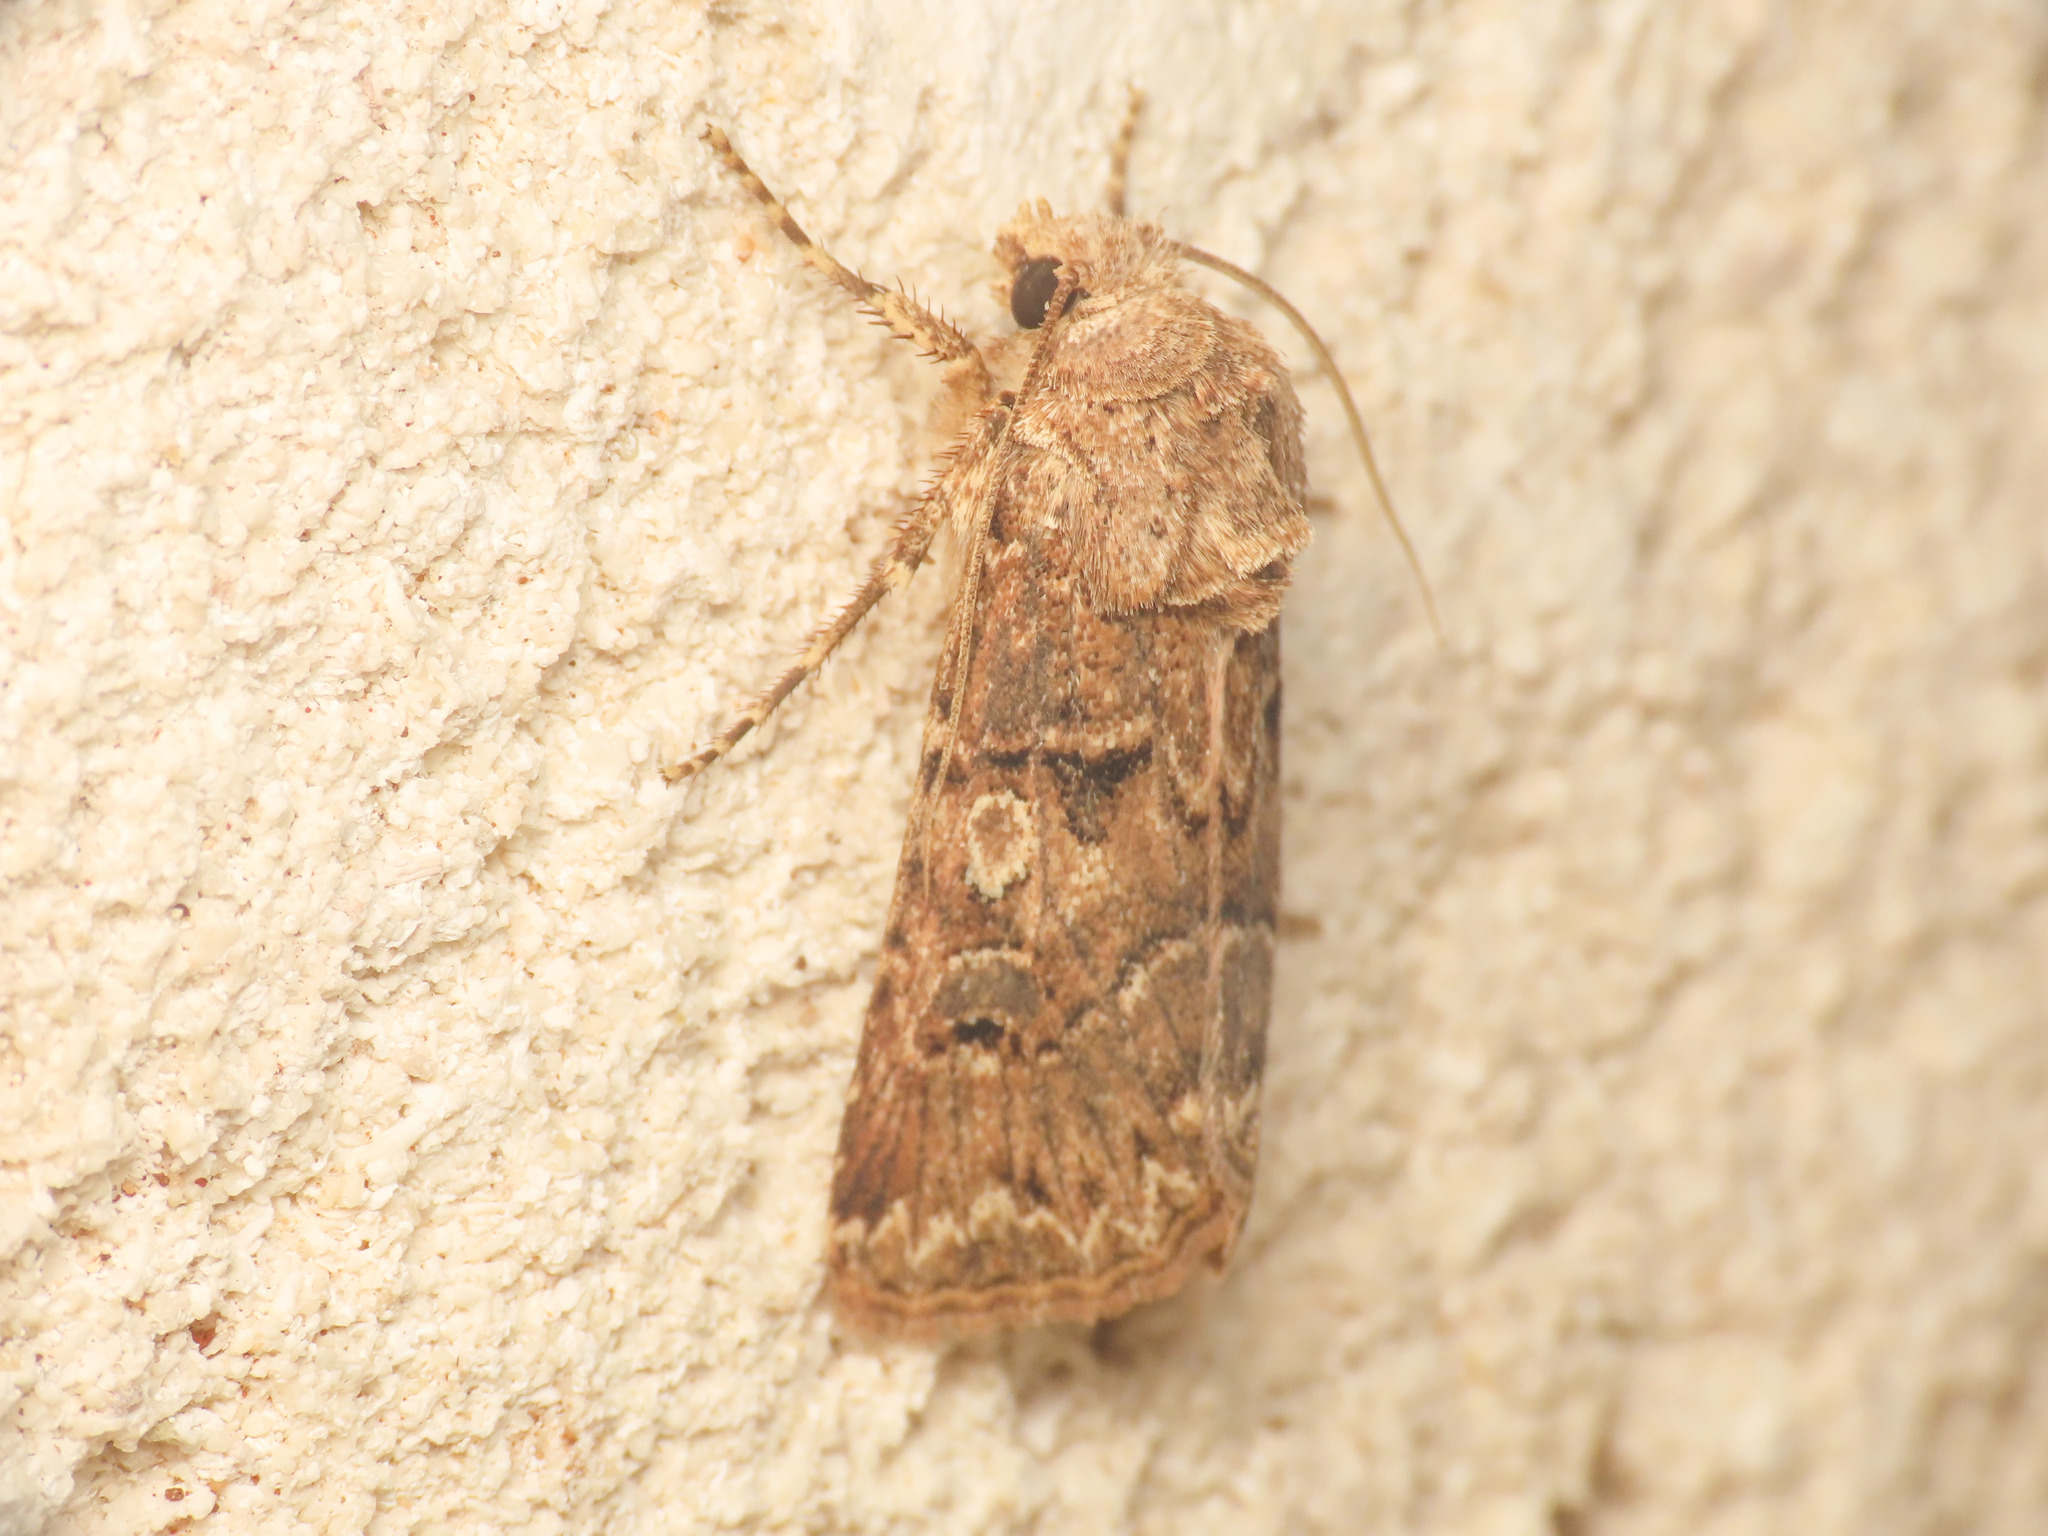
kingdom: Animalia
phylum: Arthropoda
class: Insecta
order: Lepidoptera
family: Noctuidae
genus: Agrotis
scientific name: Agrotis bigramma
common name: Great dart
